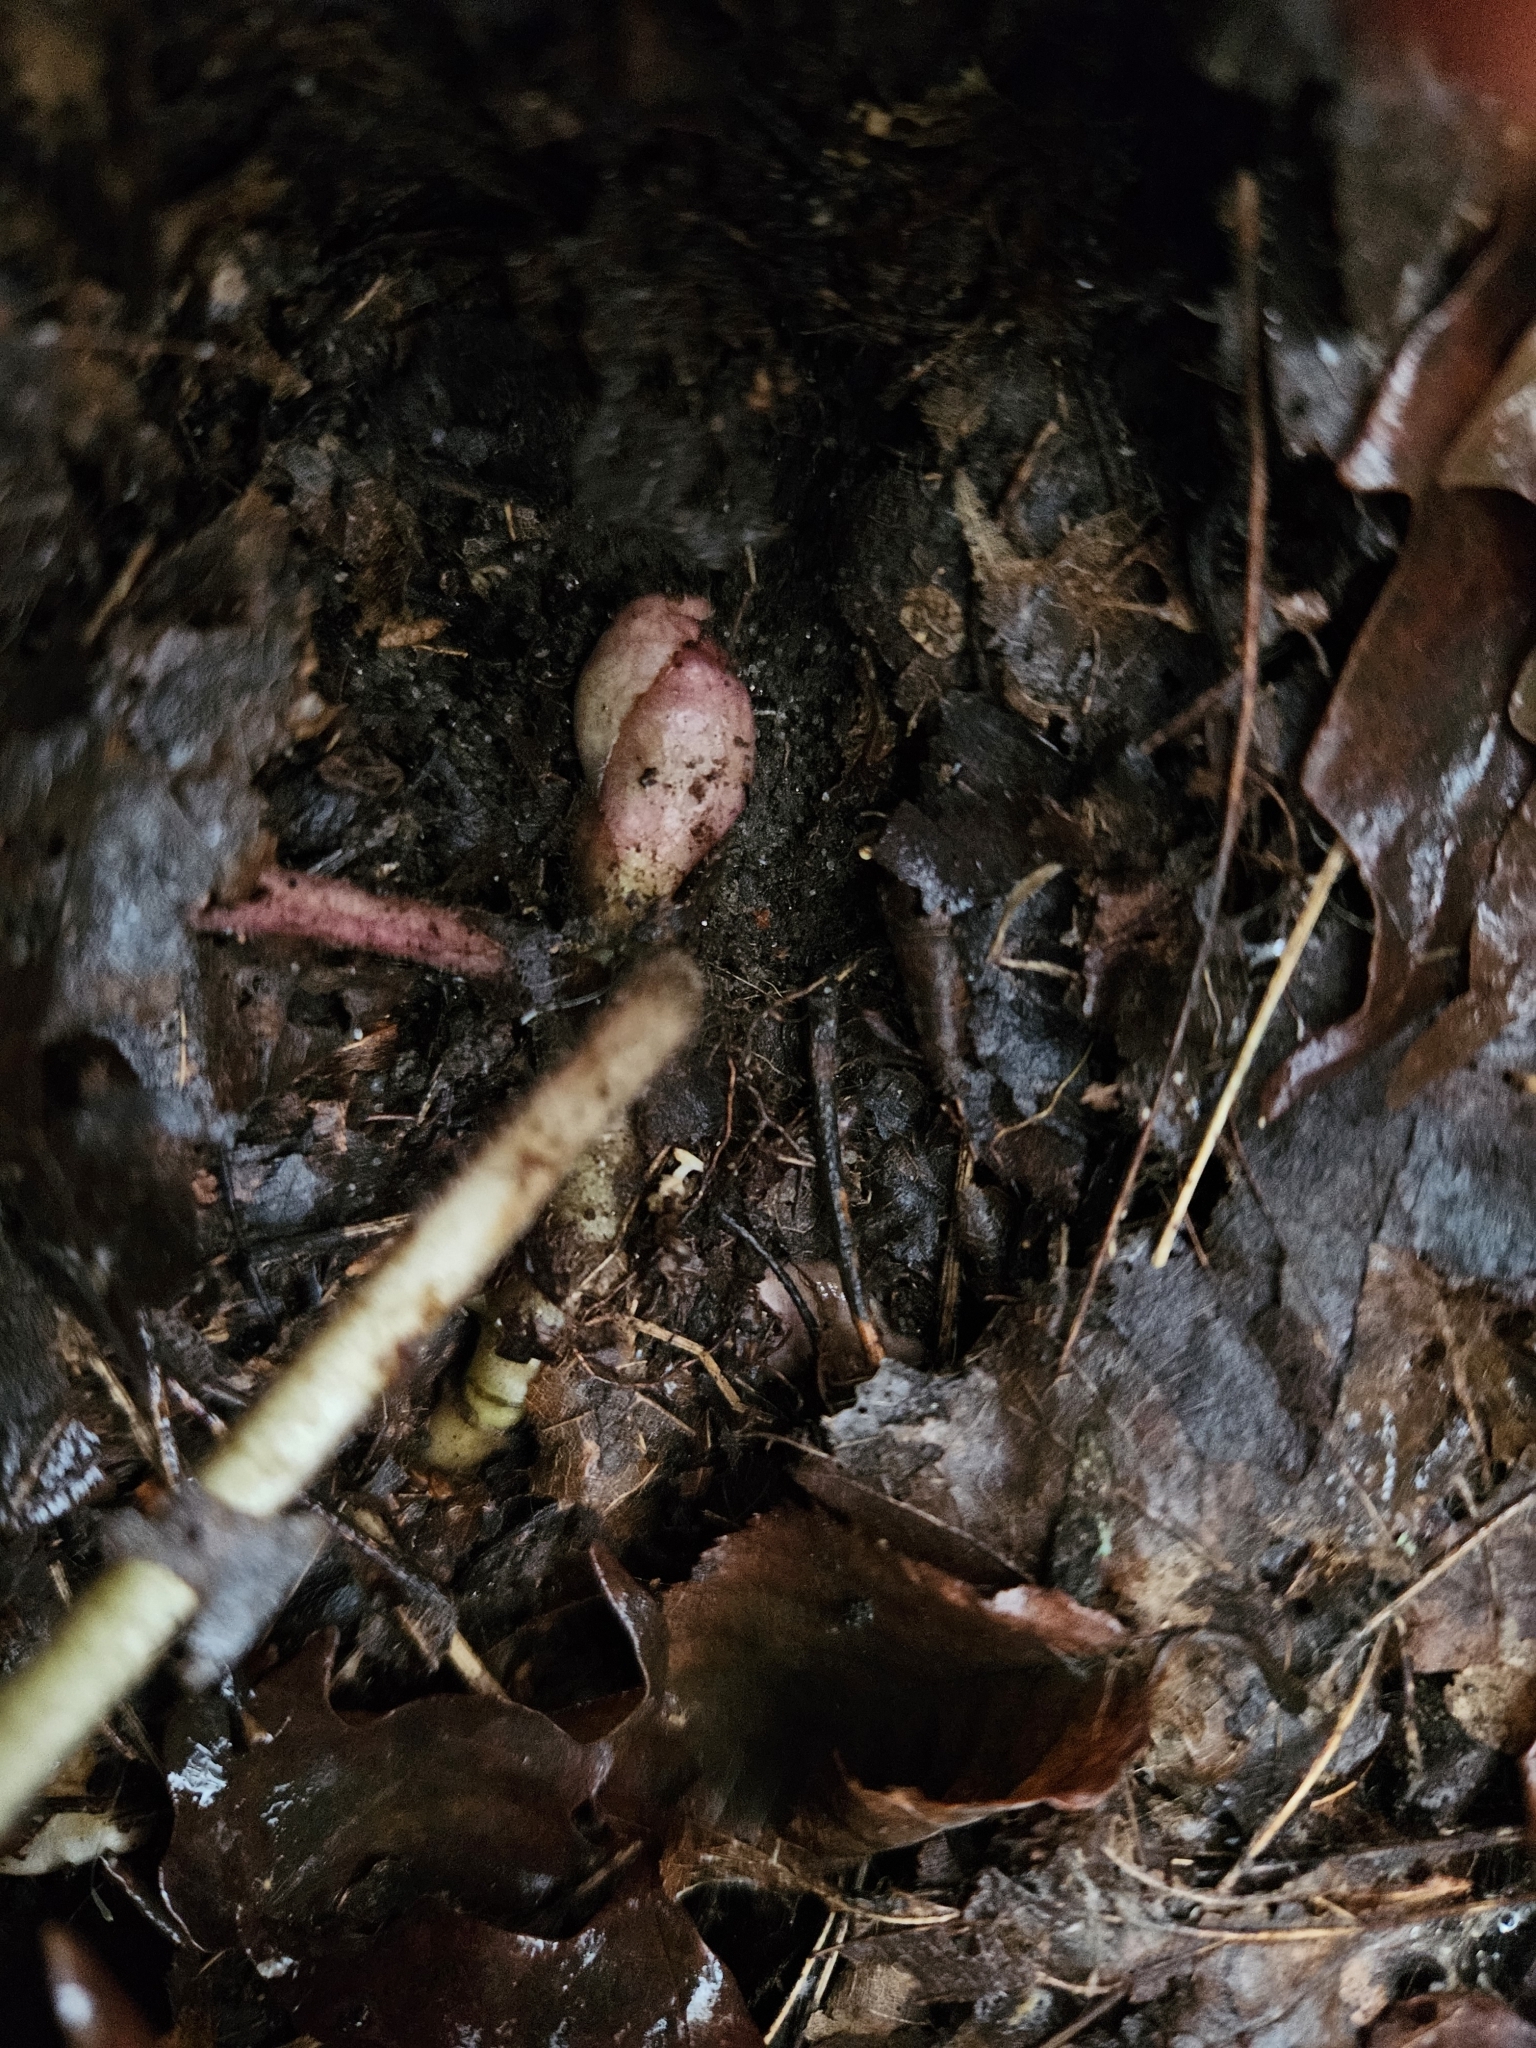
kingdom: Plantae
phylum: Tracheophyta
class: Magnoliopsida
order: Piperales
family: Aristolochiaceae
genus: Asarum
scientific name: Asarum canadense
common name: Wild ginger
